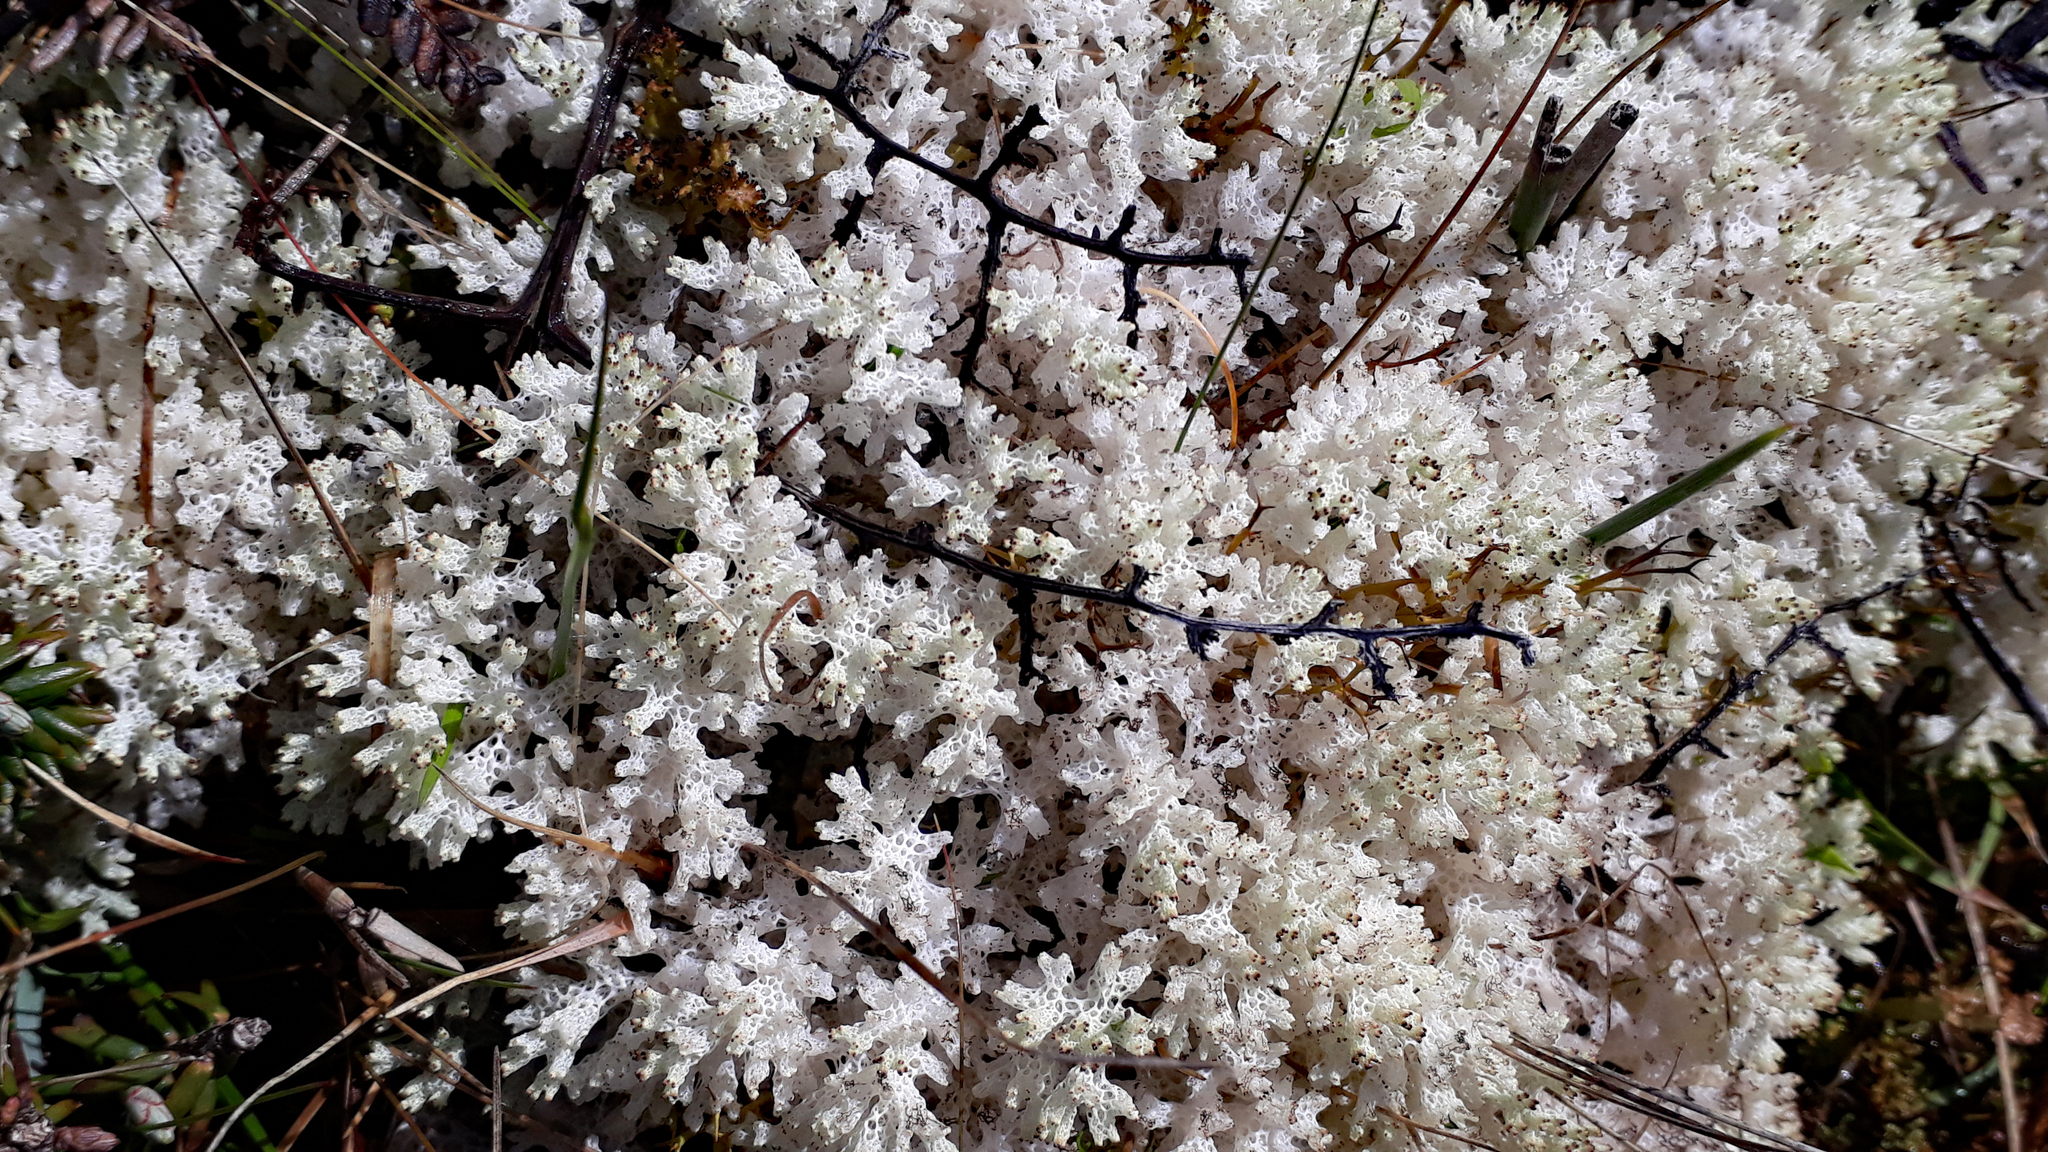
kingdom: Fungi
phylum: Ascomycota
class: Lecanoromycetes
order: Lecanorales
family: Cladoniaceae
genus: Pulchrocladia
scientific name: Pulchrocladia retipora
